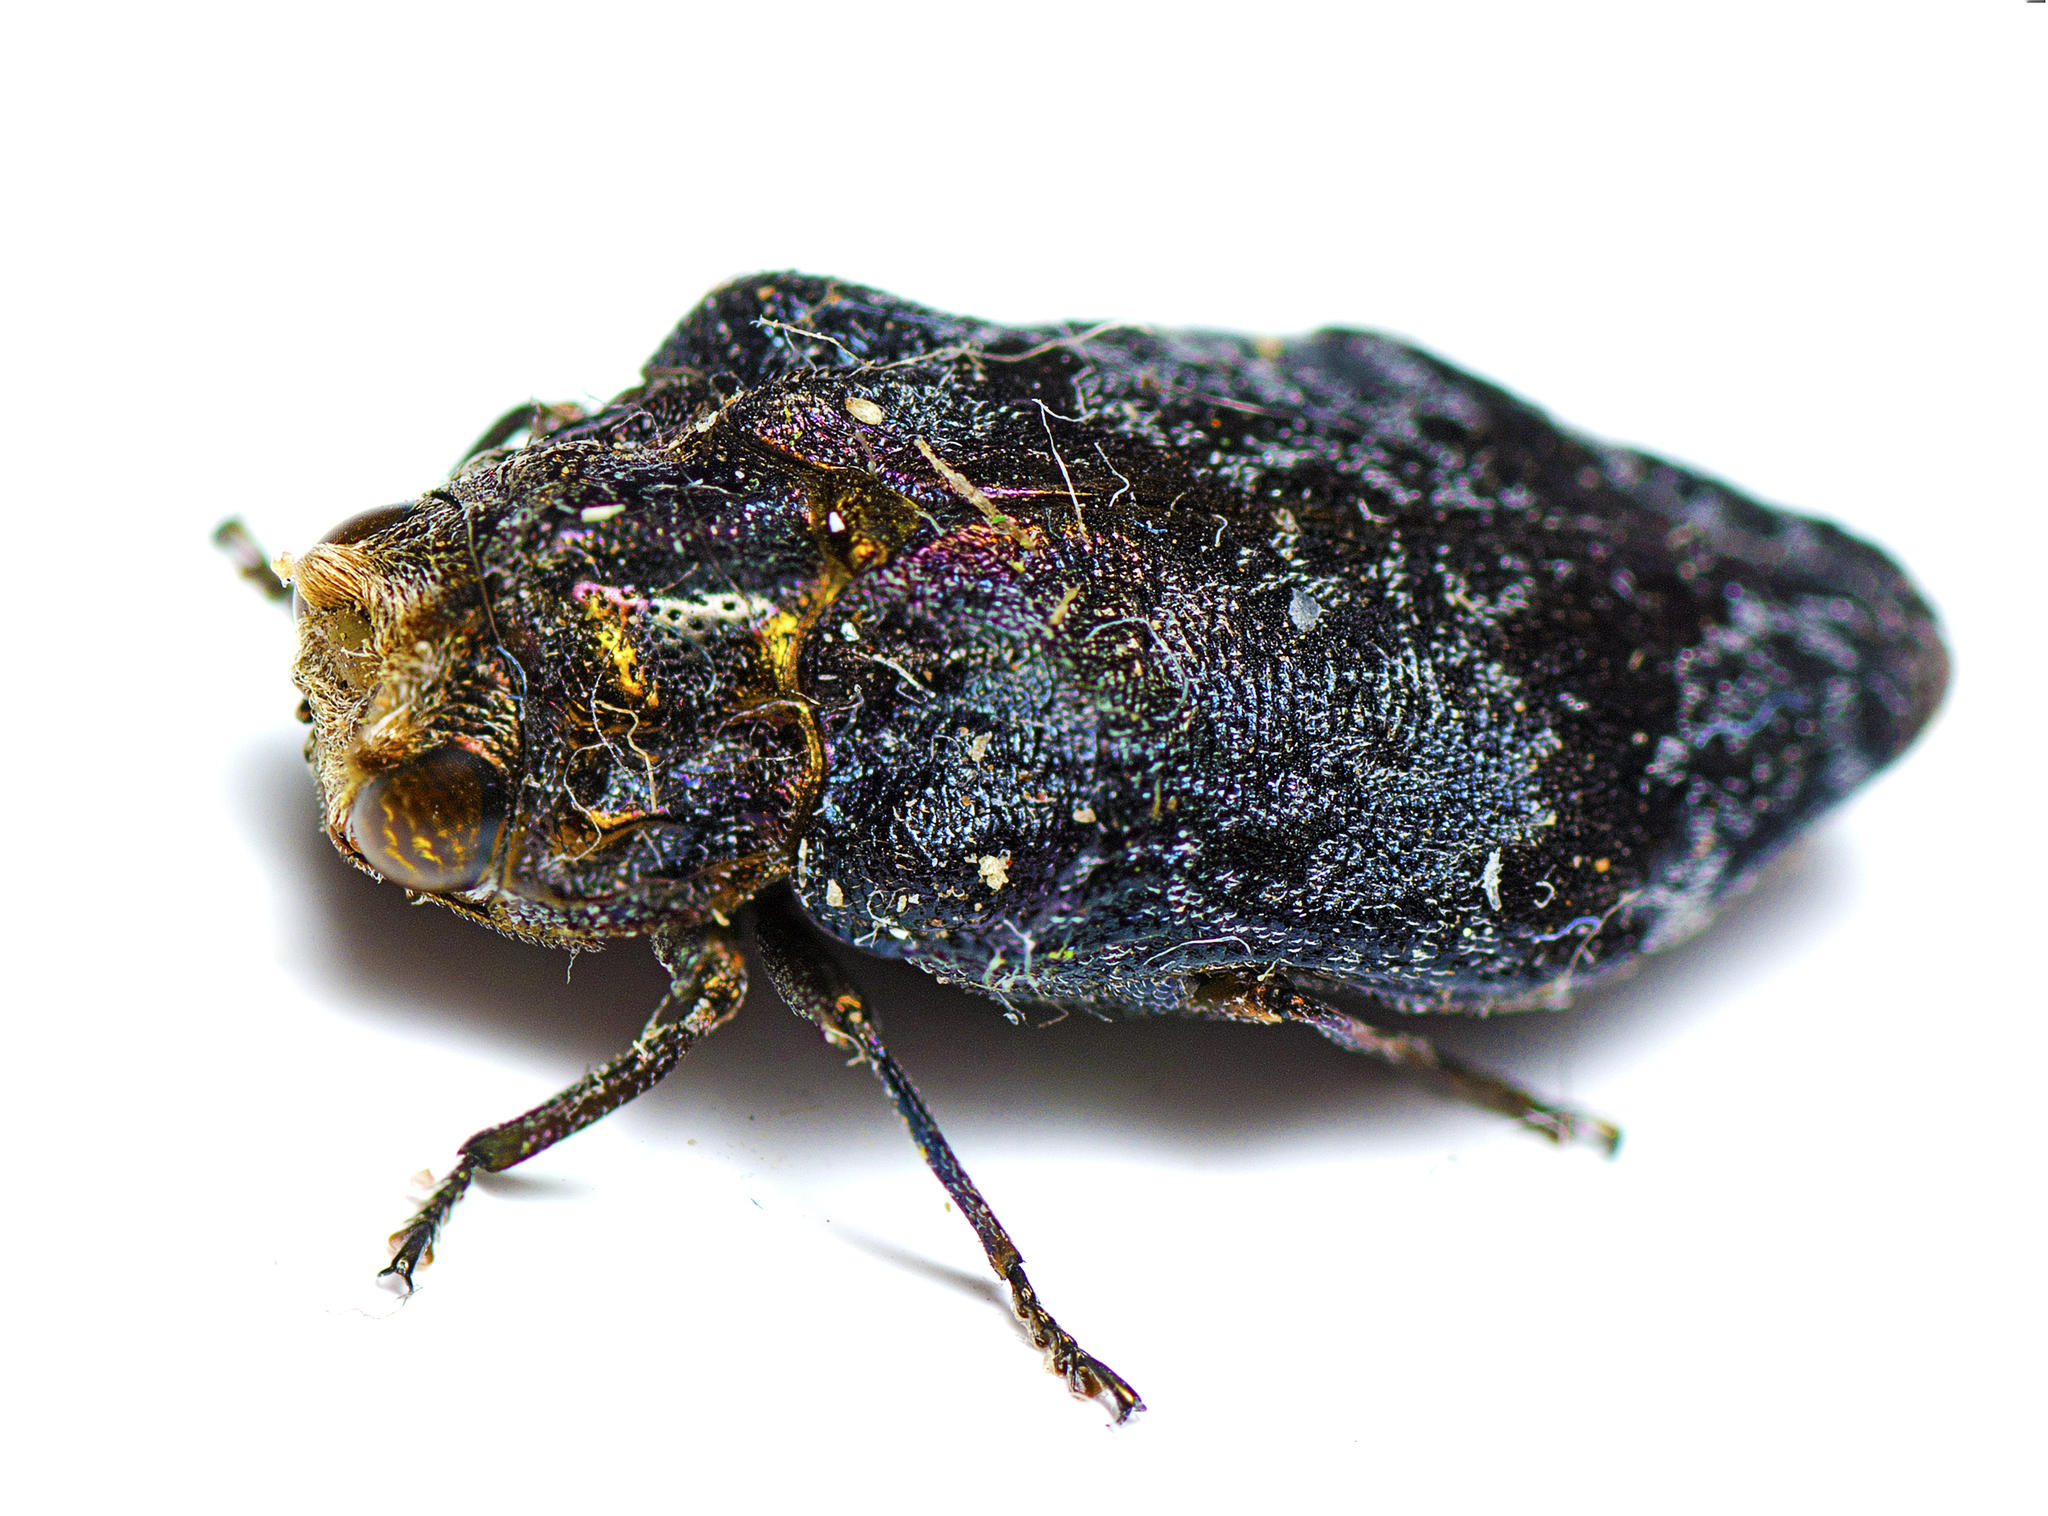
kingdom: Animalia
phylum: Arthropoda
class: Insecta
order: Coleoptera
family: Buprestidae
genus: Hypocisseis
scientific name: Hypocisseis latipennis
